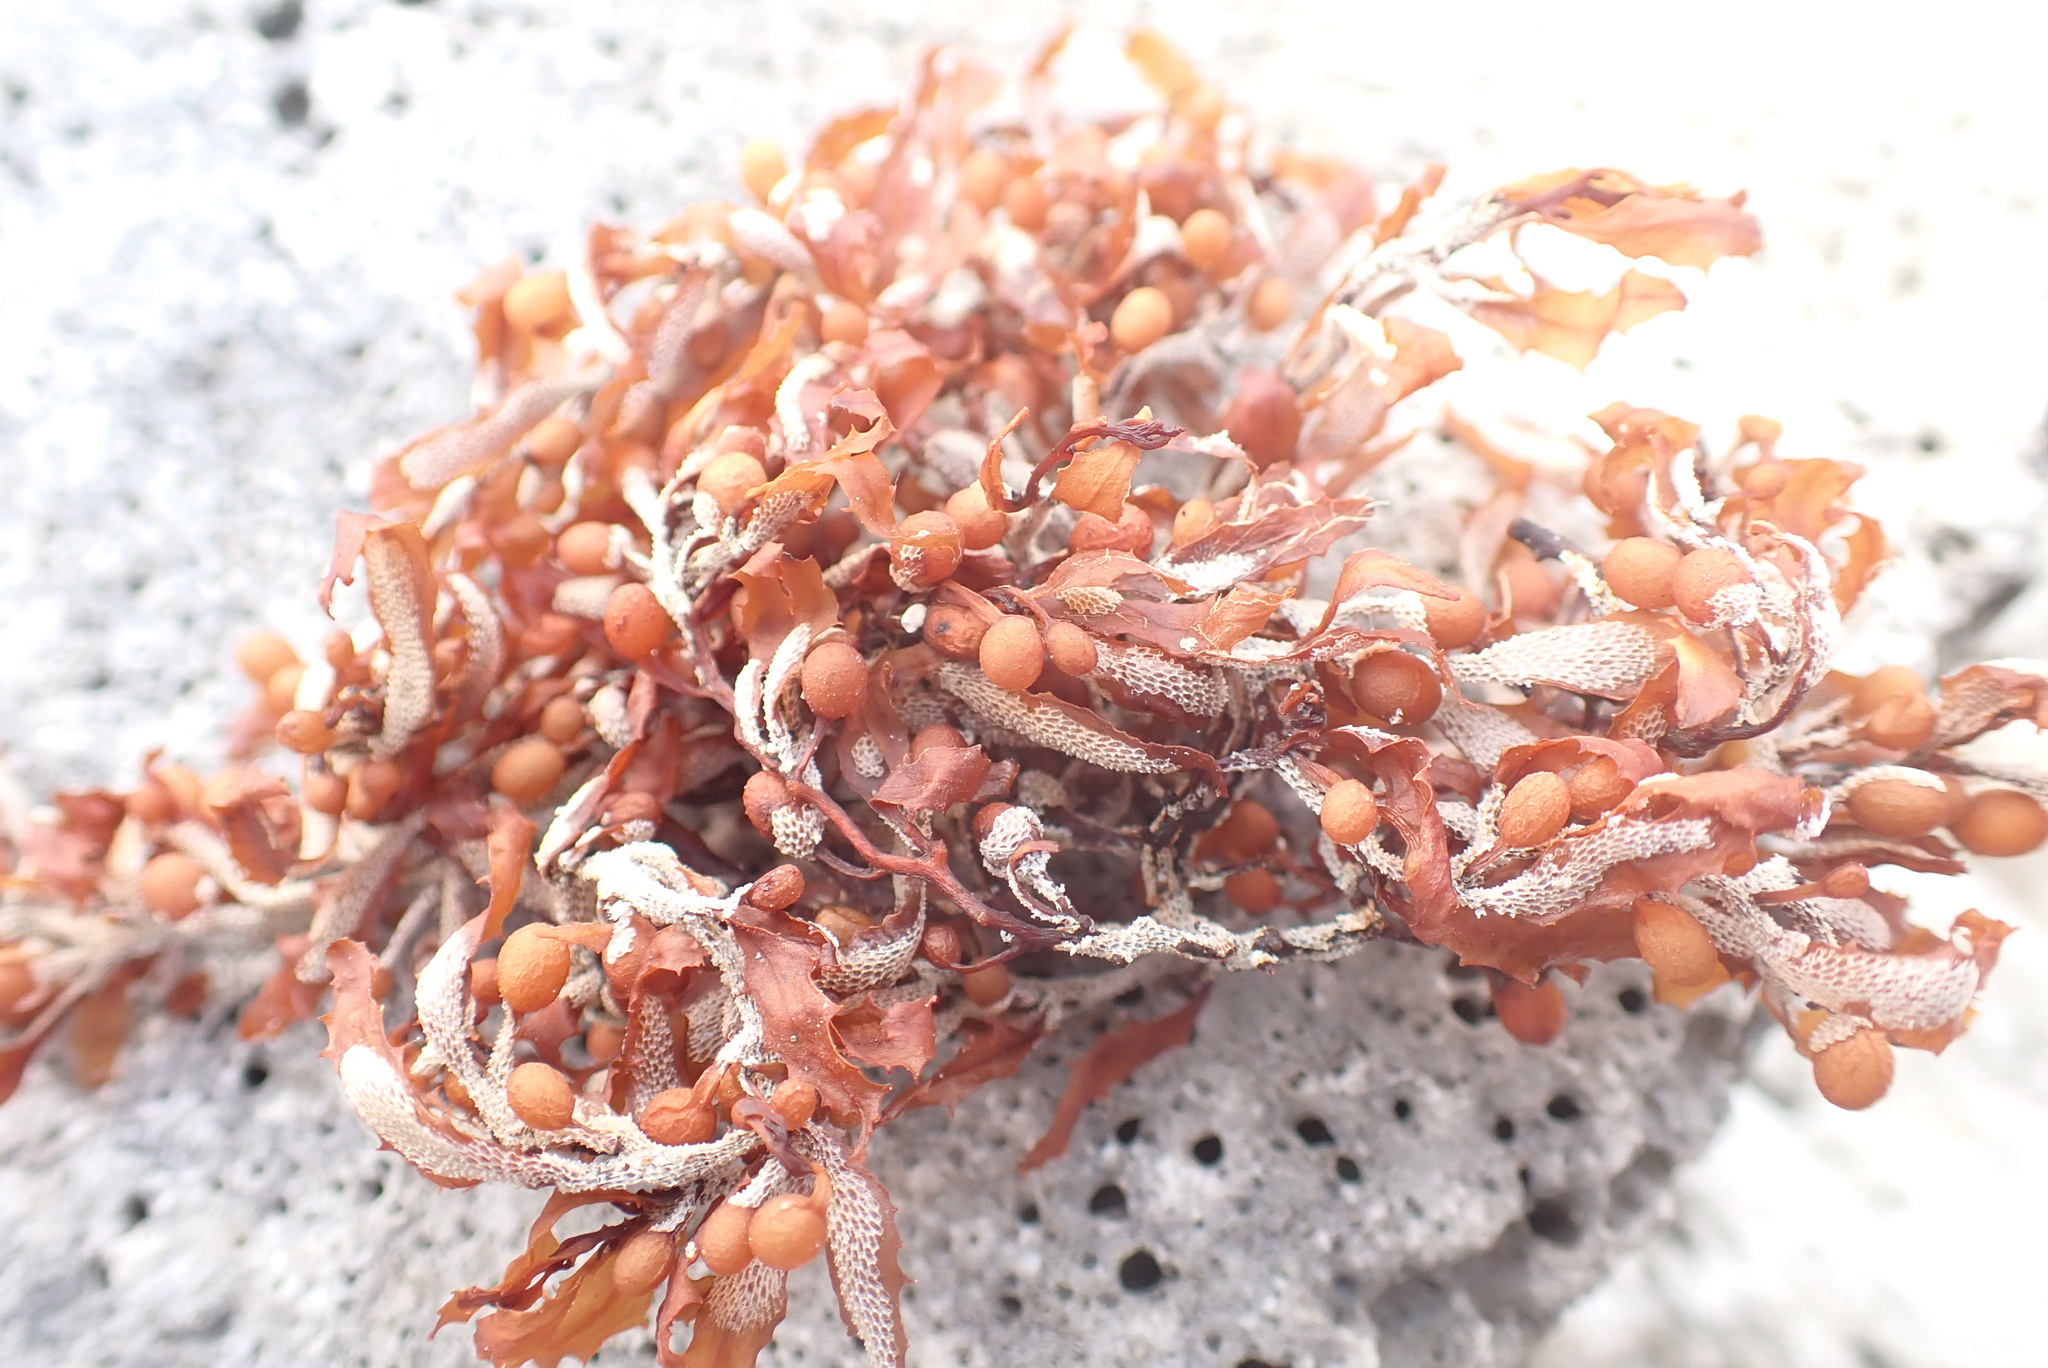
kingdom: Chromista
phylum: Ochrophyta
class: Phaeophyceae
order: Fucales
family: Sargassaceae
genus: Sargassum
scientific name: Sargassum fluitans
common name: Sargassum seaweed
